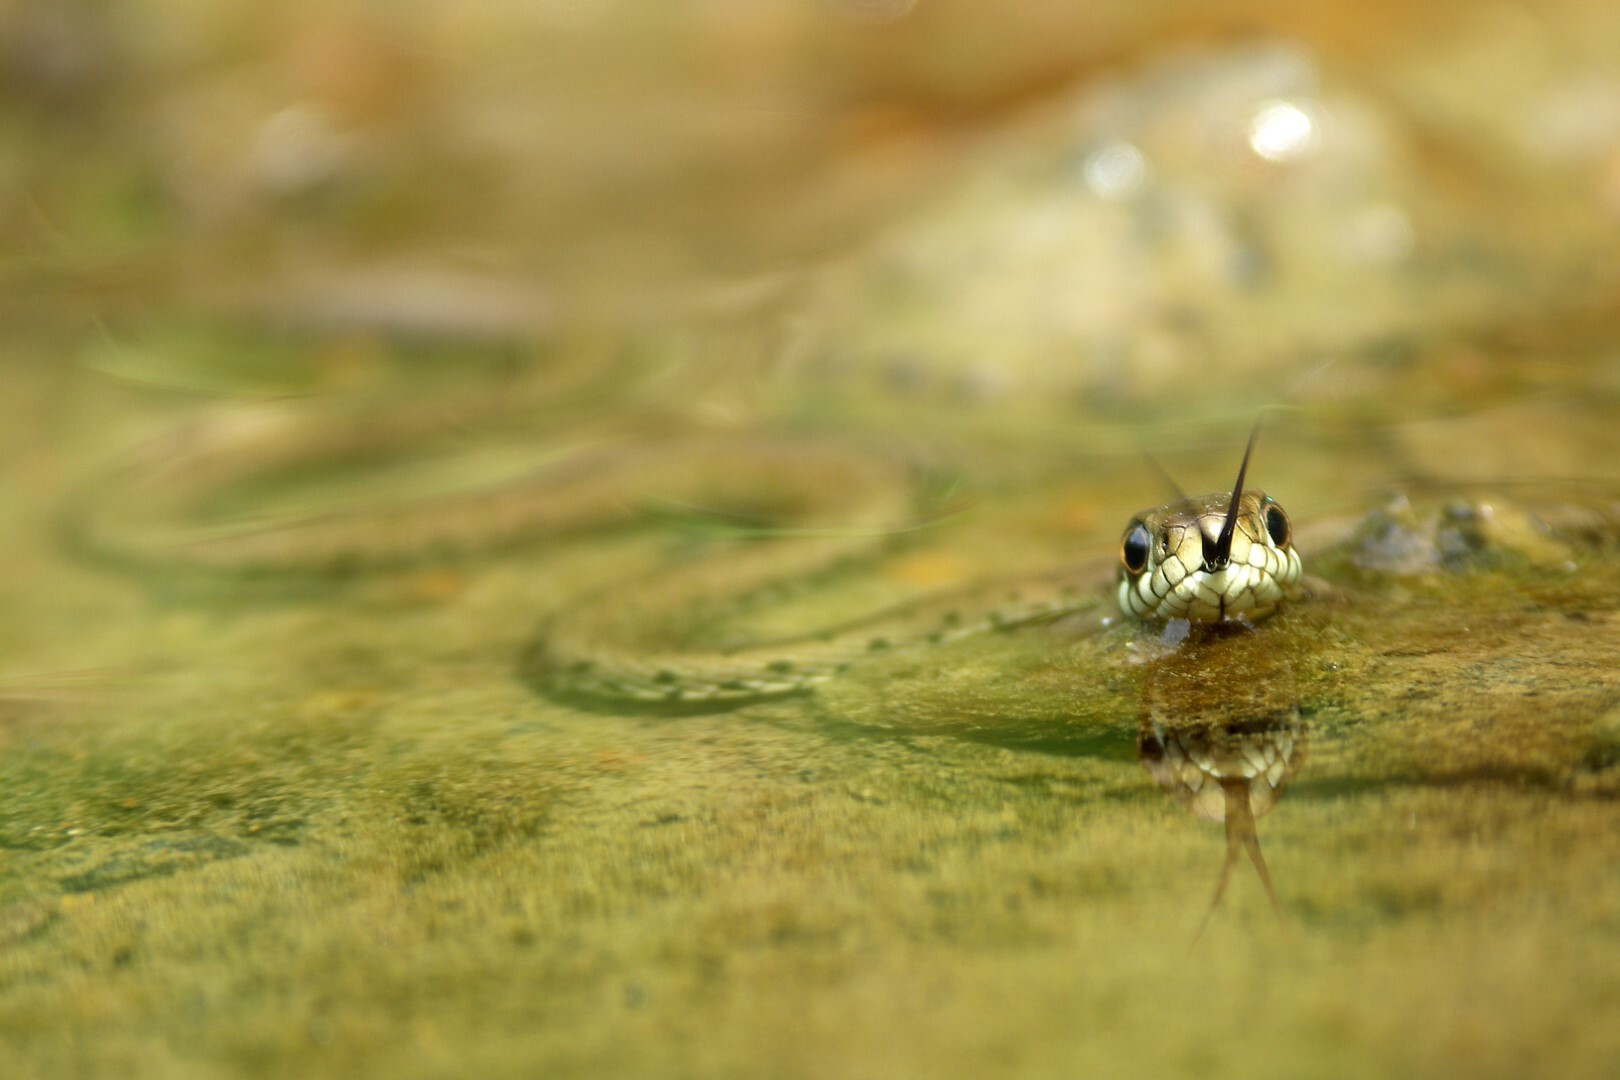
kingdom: Animalia
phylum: Chordata
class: Squamata
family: Colubridae
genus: Natrix
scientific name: Natrix helvetica
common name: Banded grass snake
